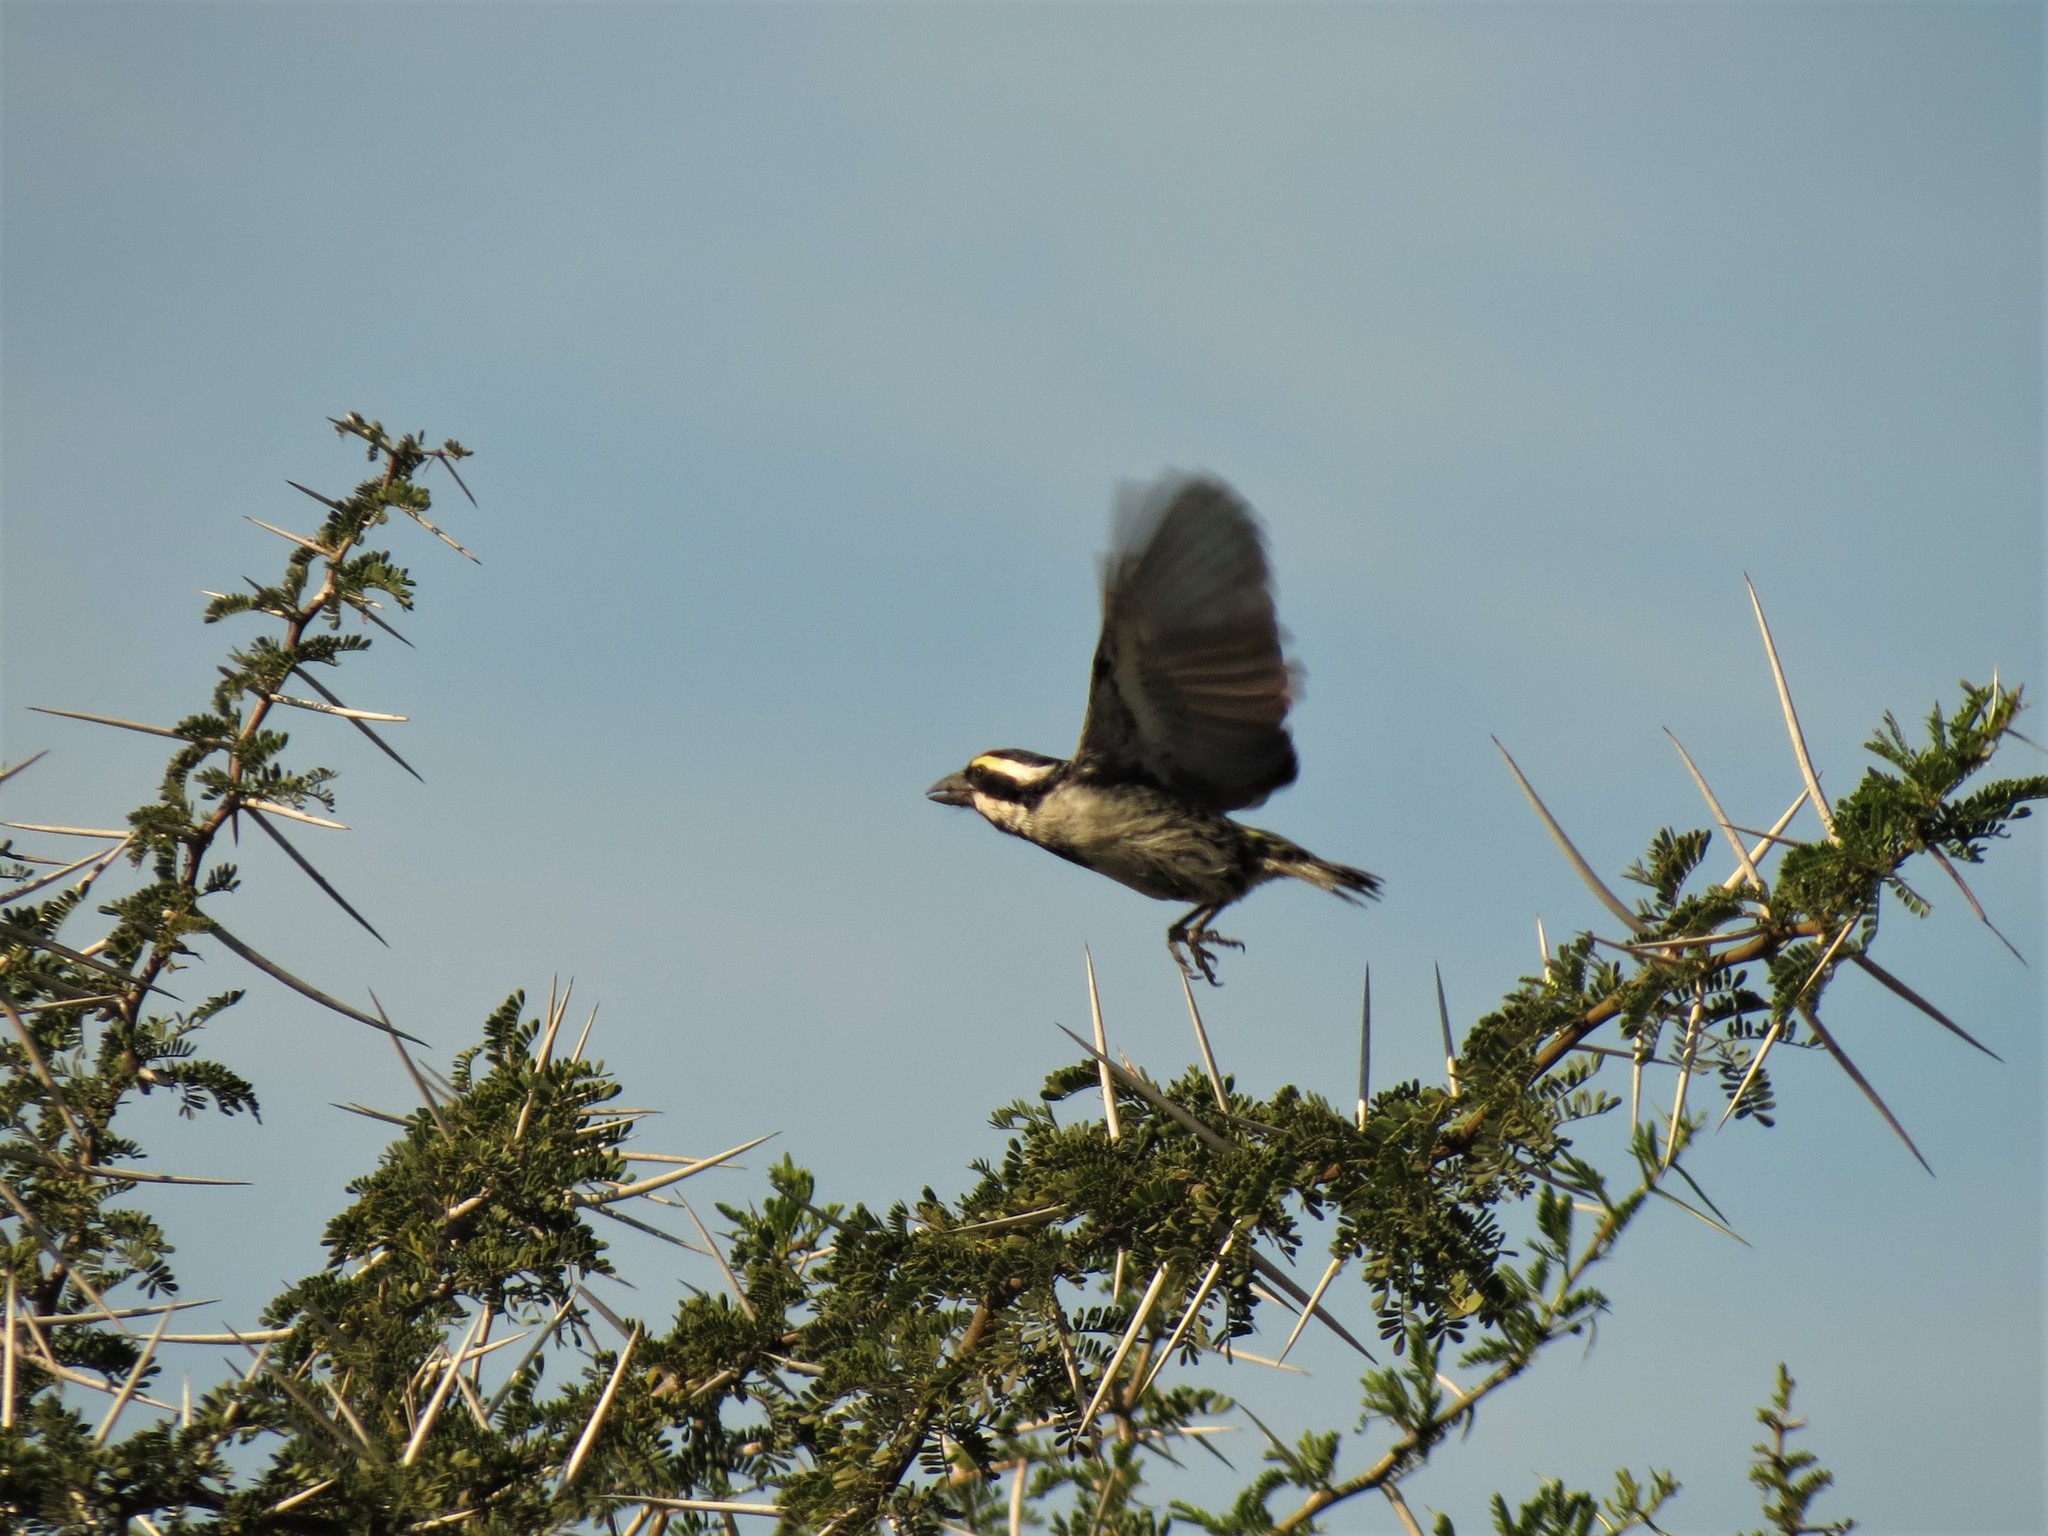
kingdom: Animalia
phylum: Chordata
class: Aves
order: Piciformes
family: Lybiidae
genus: Tricholaema
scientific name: Tricholaema leucomelas
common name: Acacia pied barbet
